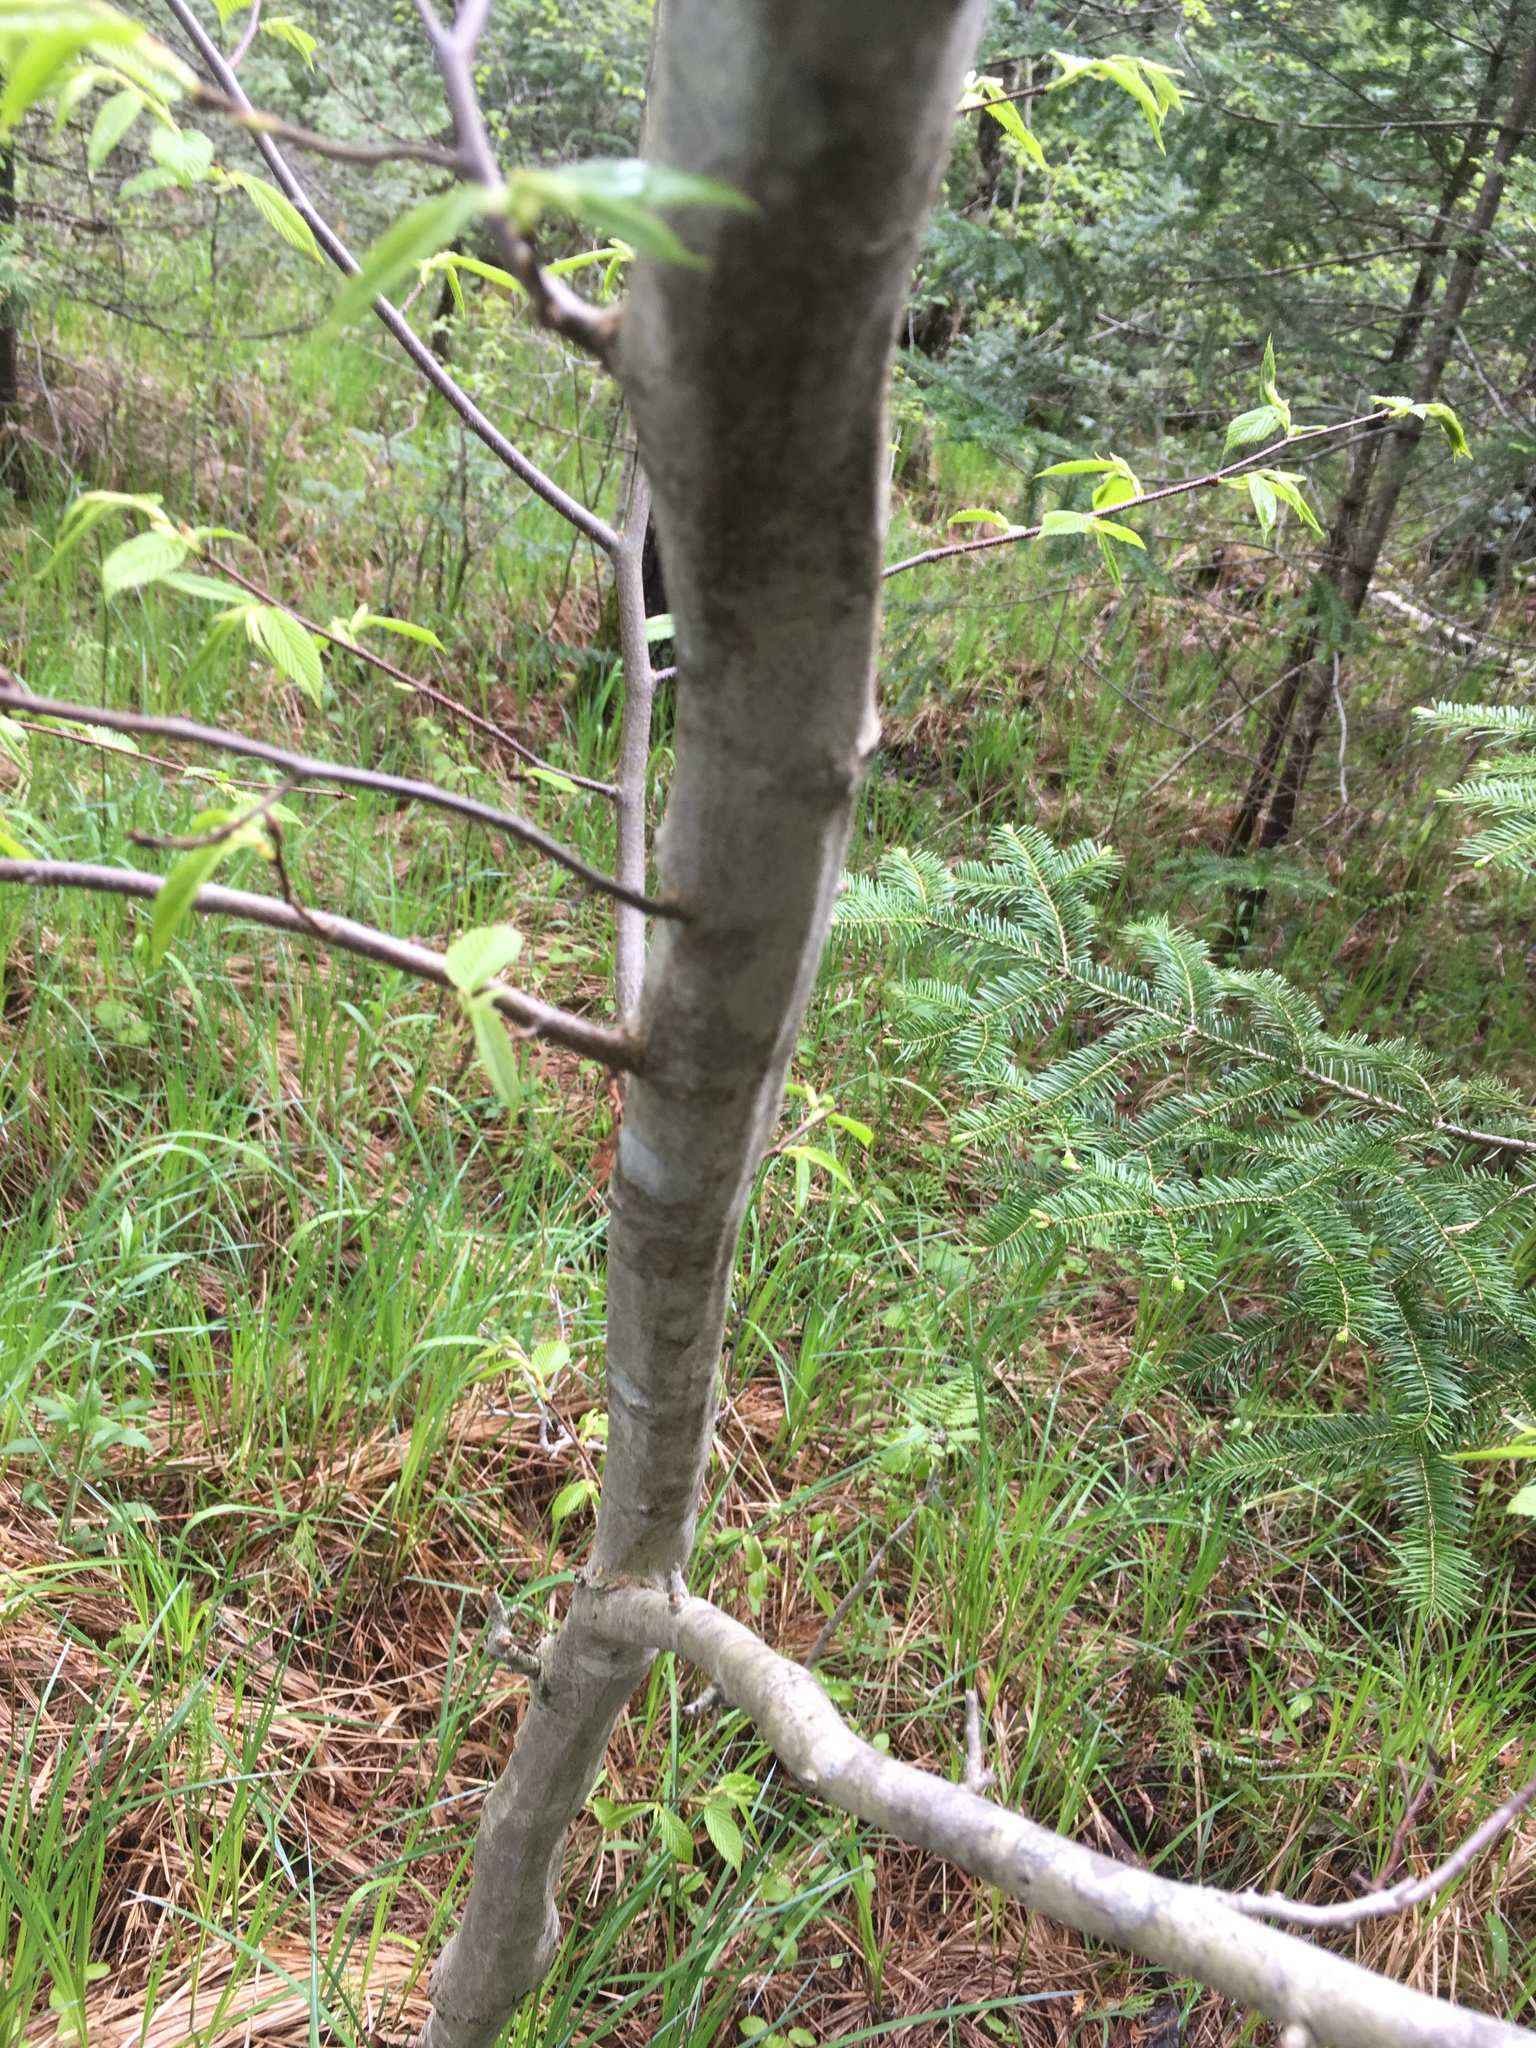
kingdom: Plantae
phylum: Tracheophyta
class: Magnoliopsida
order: Fagales
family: Betulaceae
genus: Carpinus
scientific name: Carpinus caroliniana
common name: American hornbeam
